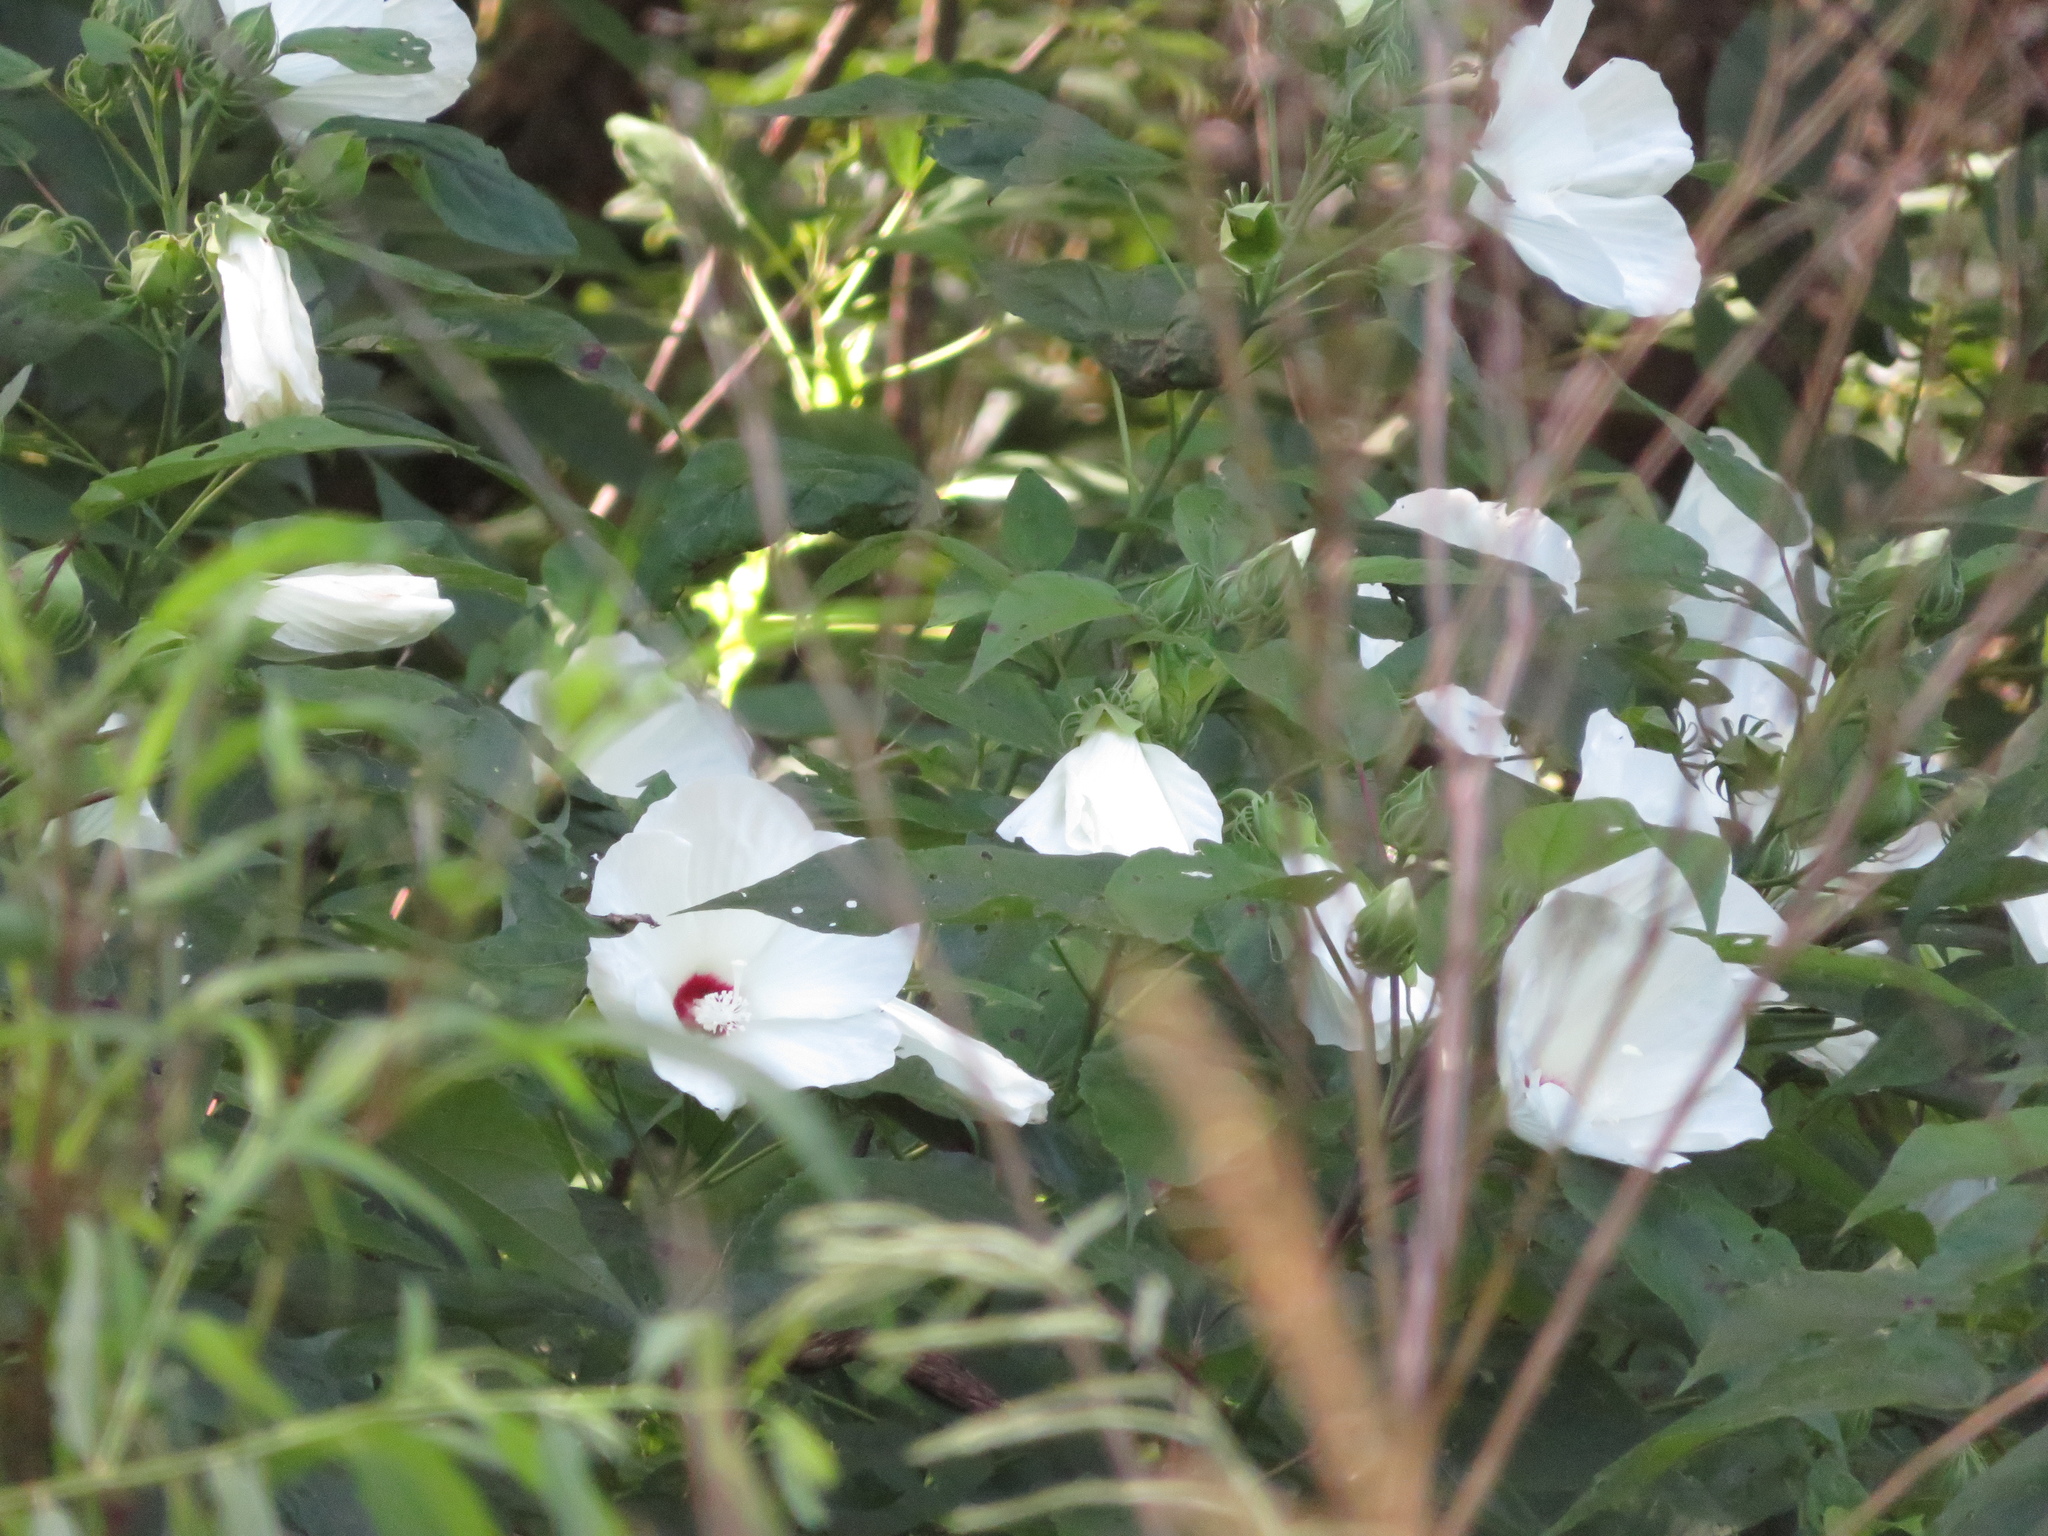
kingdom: Plantae
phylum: Tracheophyta
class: Magnoliopsida
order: Malvales
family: Malvaceae
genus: Hibiscus
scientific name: Hibiscus moscheutos
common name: Common rose-mallow
